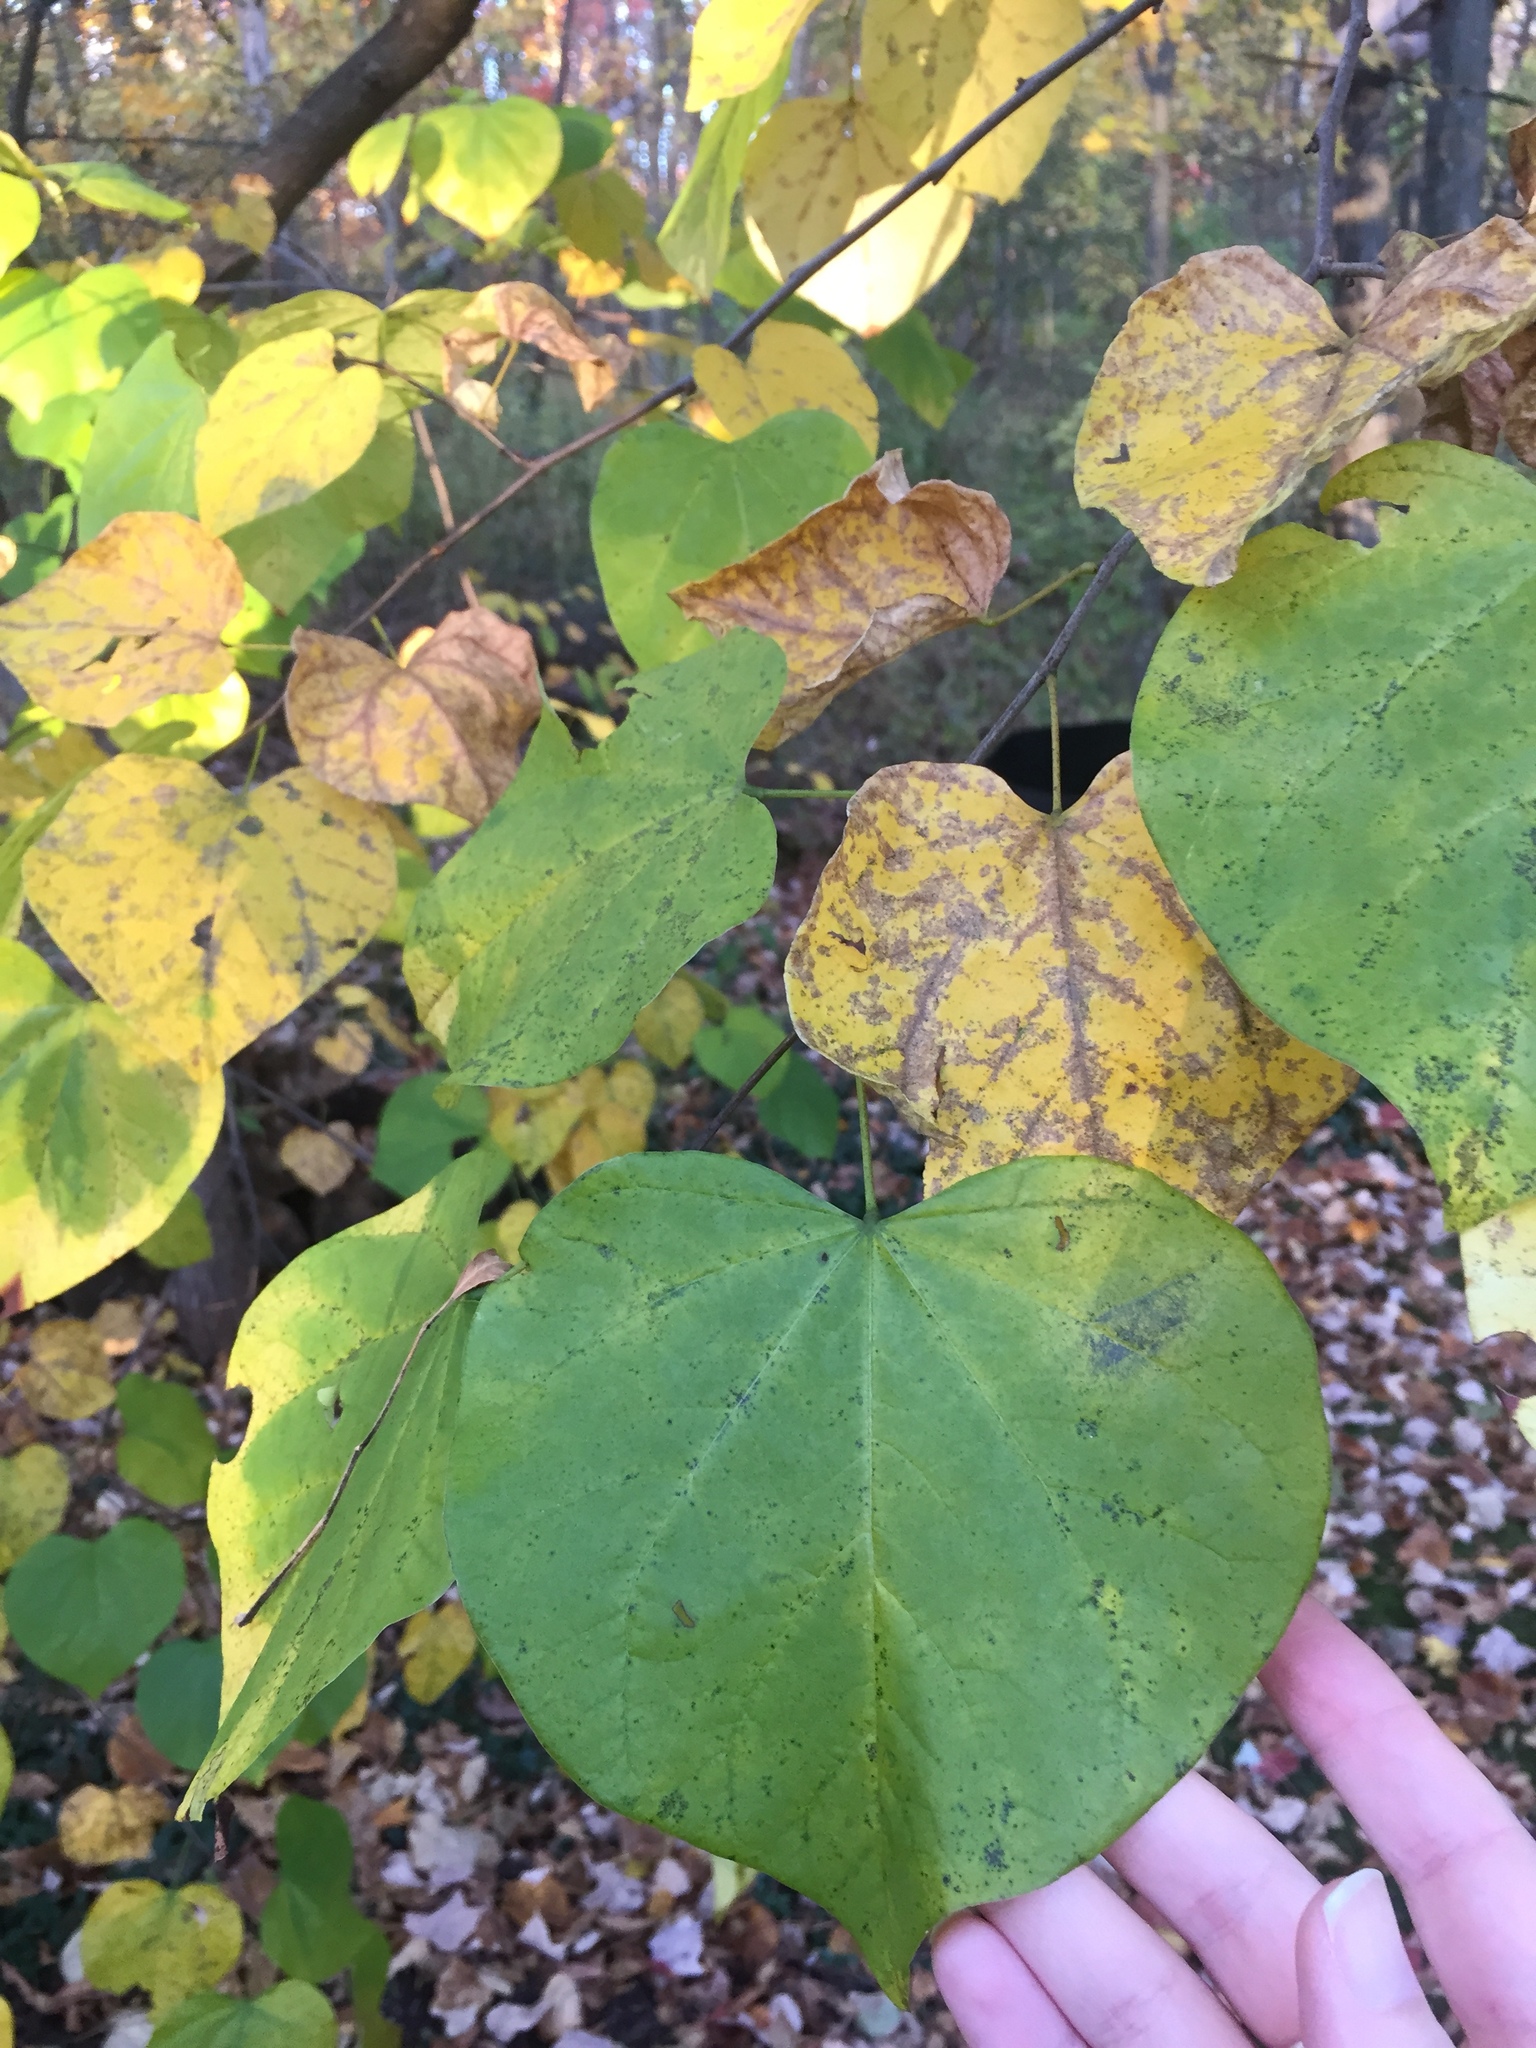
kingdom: Plantae
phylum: Tracheophyta
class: Magnoliopsida
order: Fabales
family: Fabaceae
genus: Cercis
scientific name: Cercis canadensis
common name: Eastern redbud
